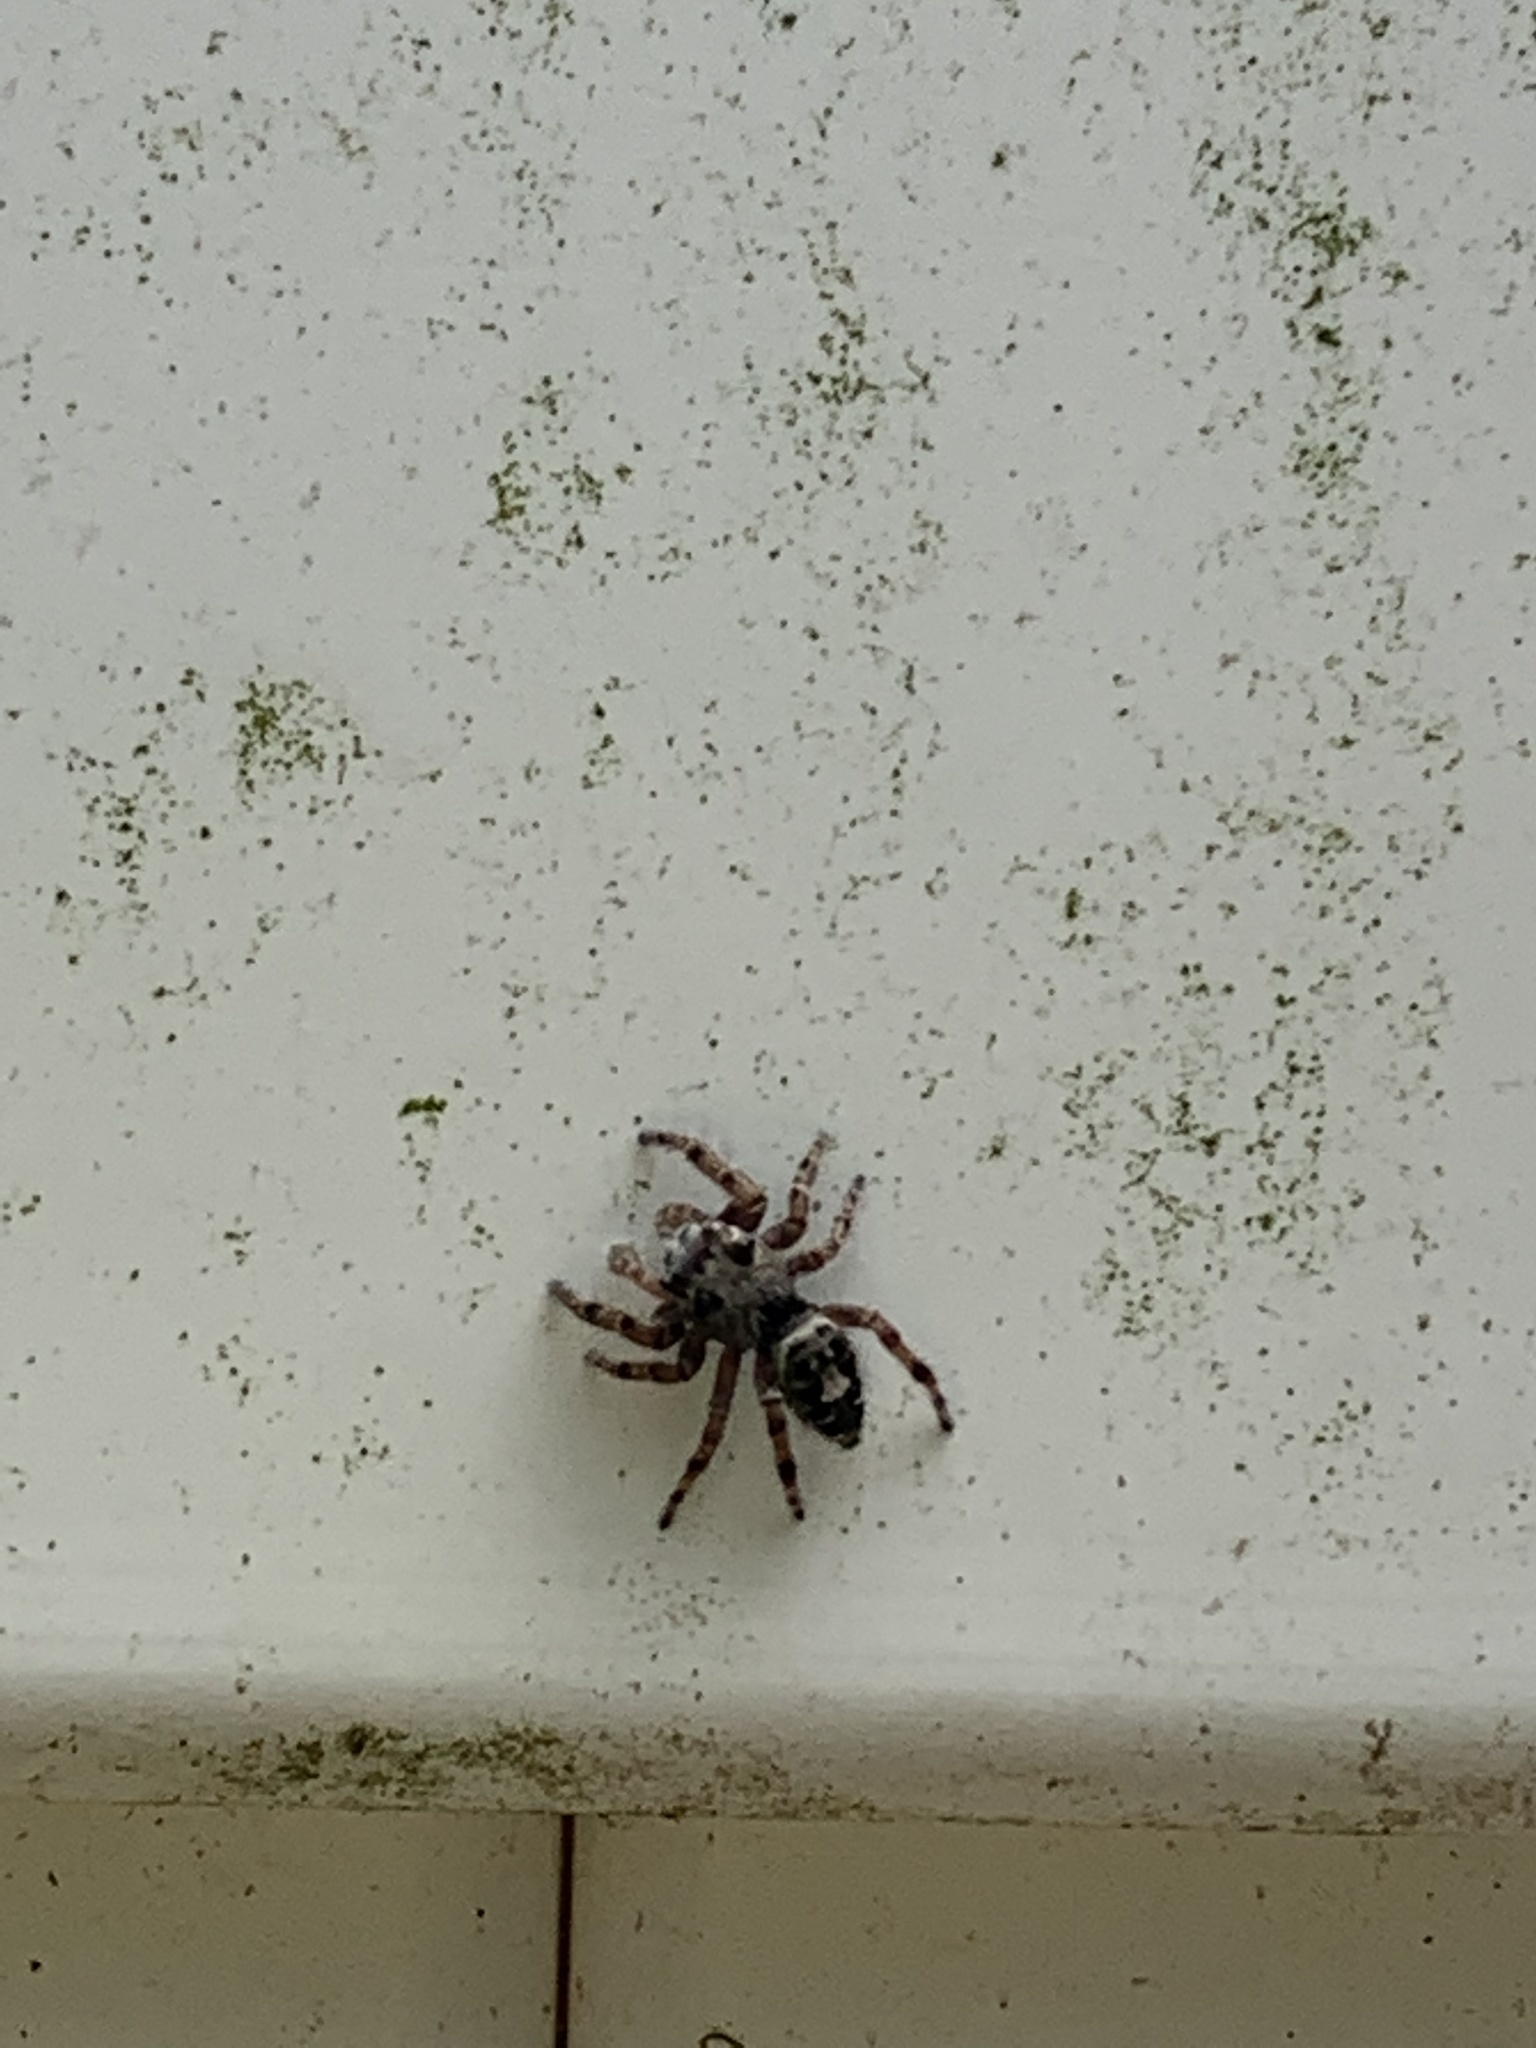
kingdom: Animalia
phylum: Arthropoda
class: Arachnida
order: Araneae
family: Salticidae
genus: Phidippus
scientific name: Phidippus putnami
